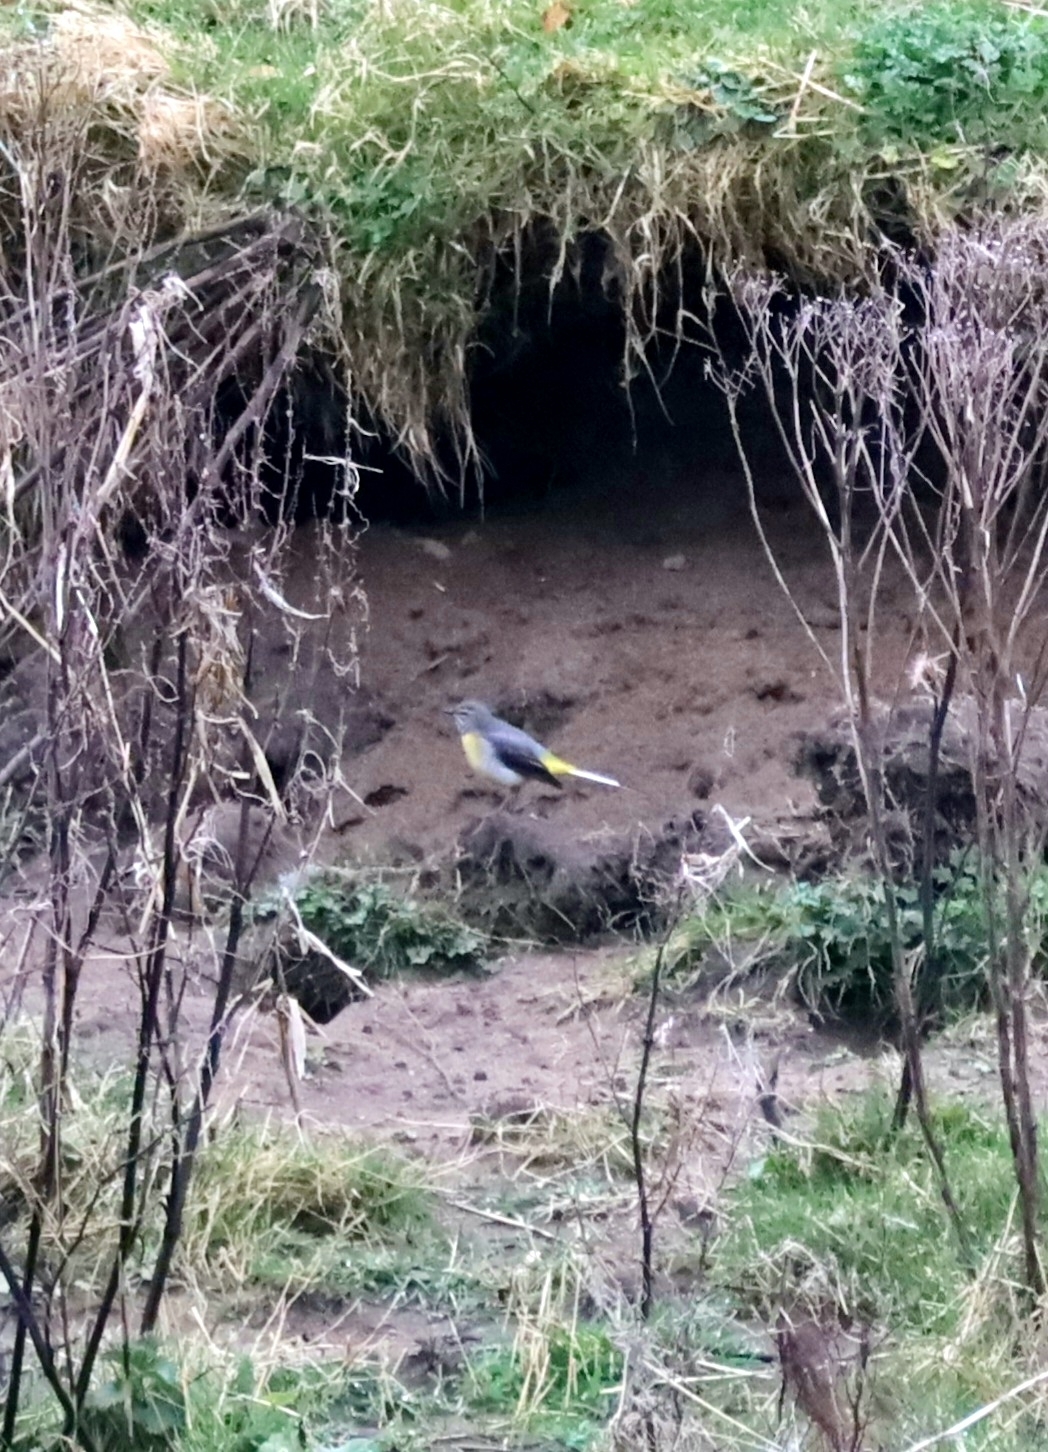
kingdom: Animalia
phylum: Chordata
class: Aves
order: Passeriformes
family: Motacillidae
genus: Motacilla
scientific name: Motacilla cinerea
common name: Grey wagtail
